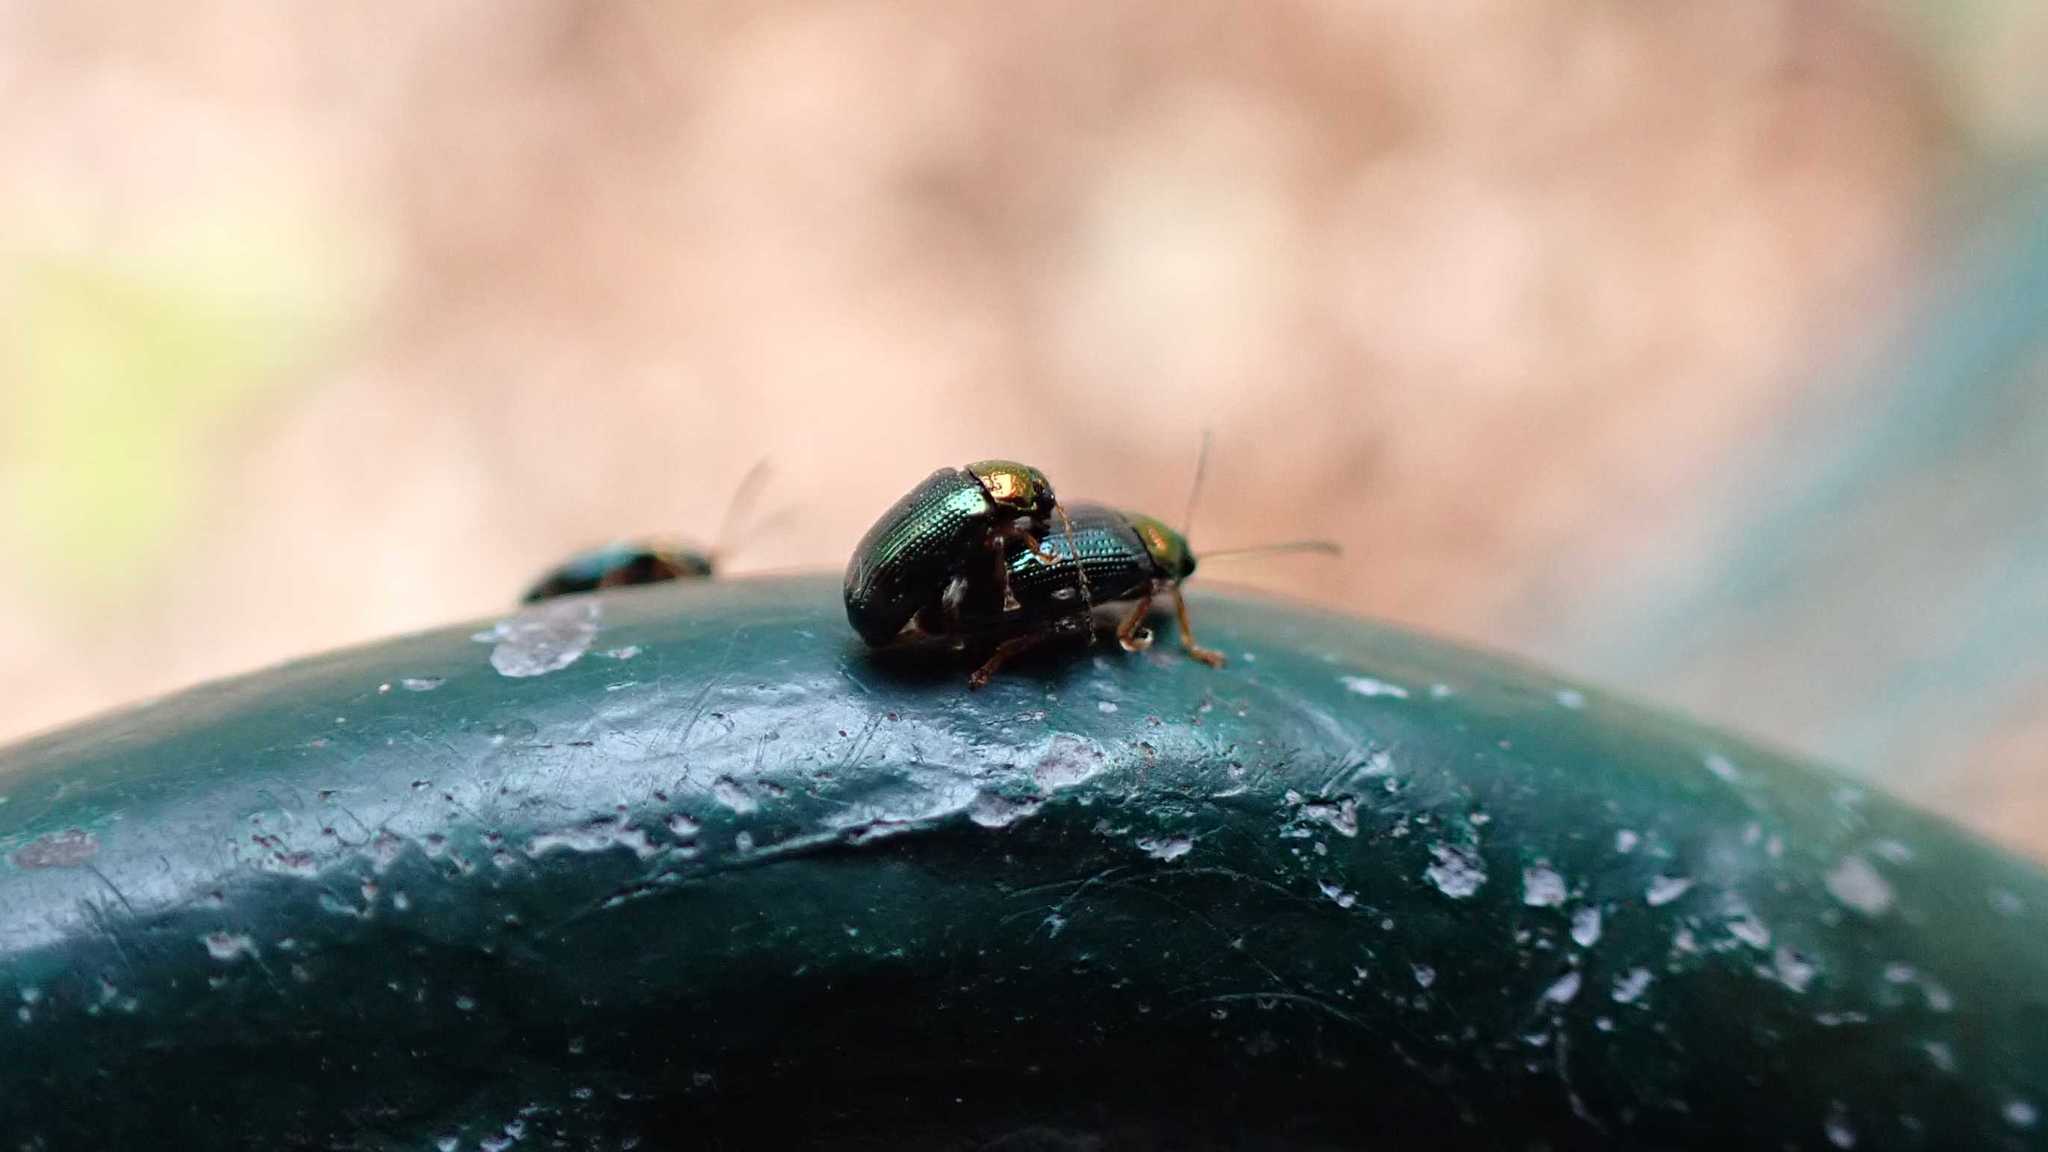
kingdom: Animalia
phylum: Arthropoda
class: Insecta
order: Coleoptera
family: Chrysomelidae
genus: Crepidodera
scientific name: Crepidodera aurata
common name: Willow flea beetle
